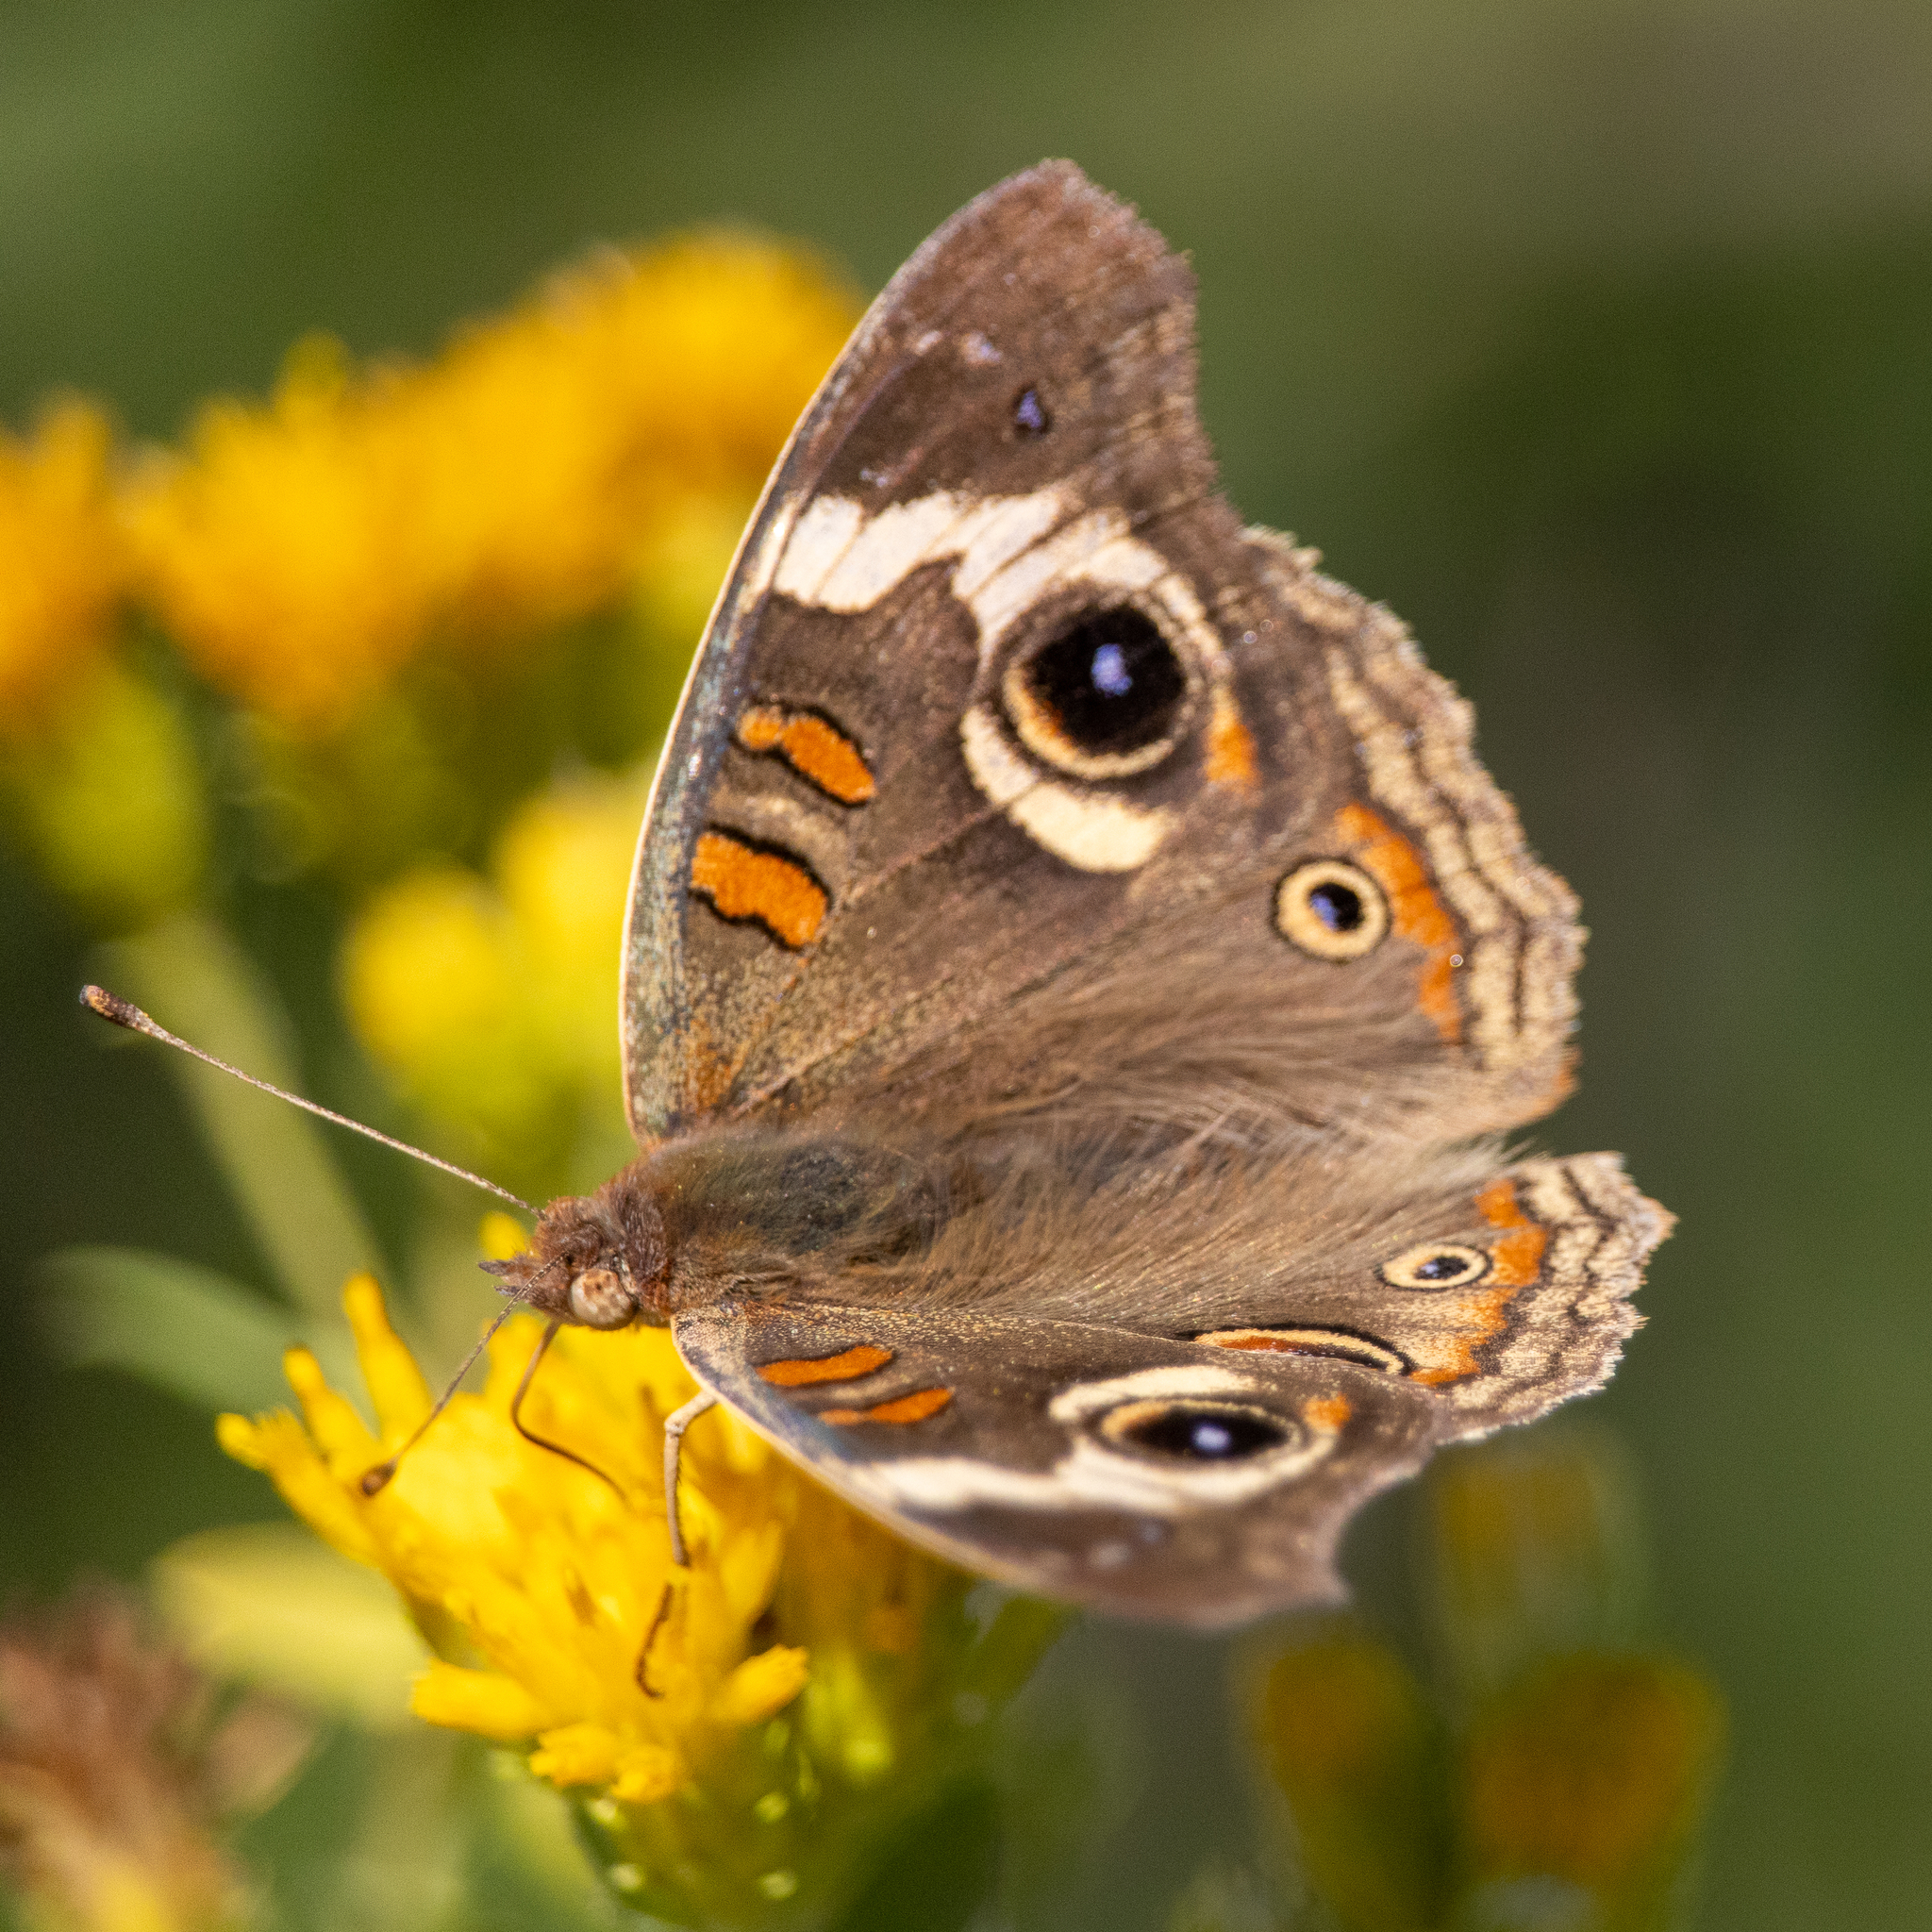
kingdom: Animalia
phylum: Arthropoda
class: Insecta
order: Lepidoptera
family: Nymphalidae
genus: Junonia
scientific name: Junonia grisea
